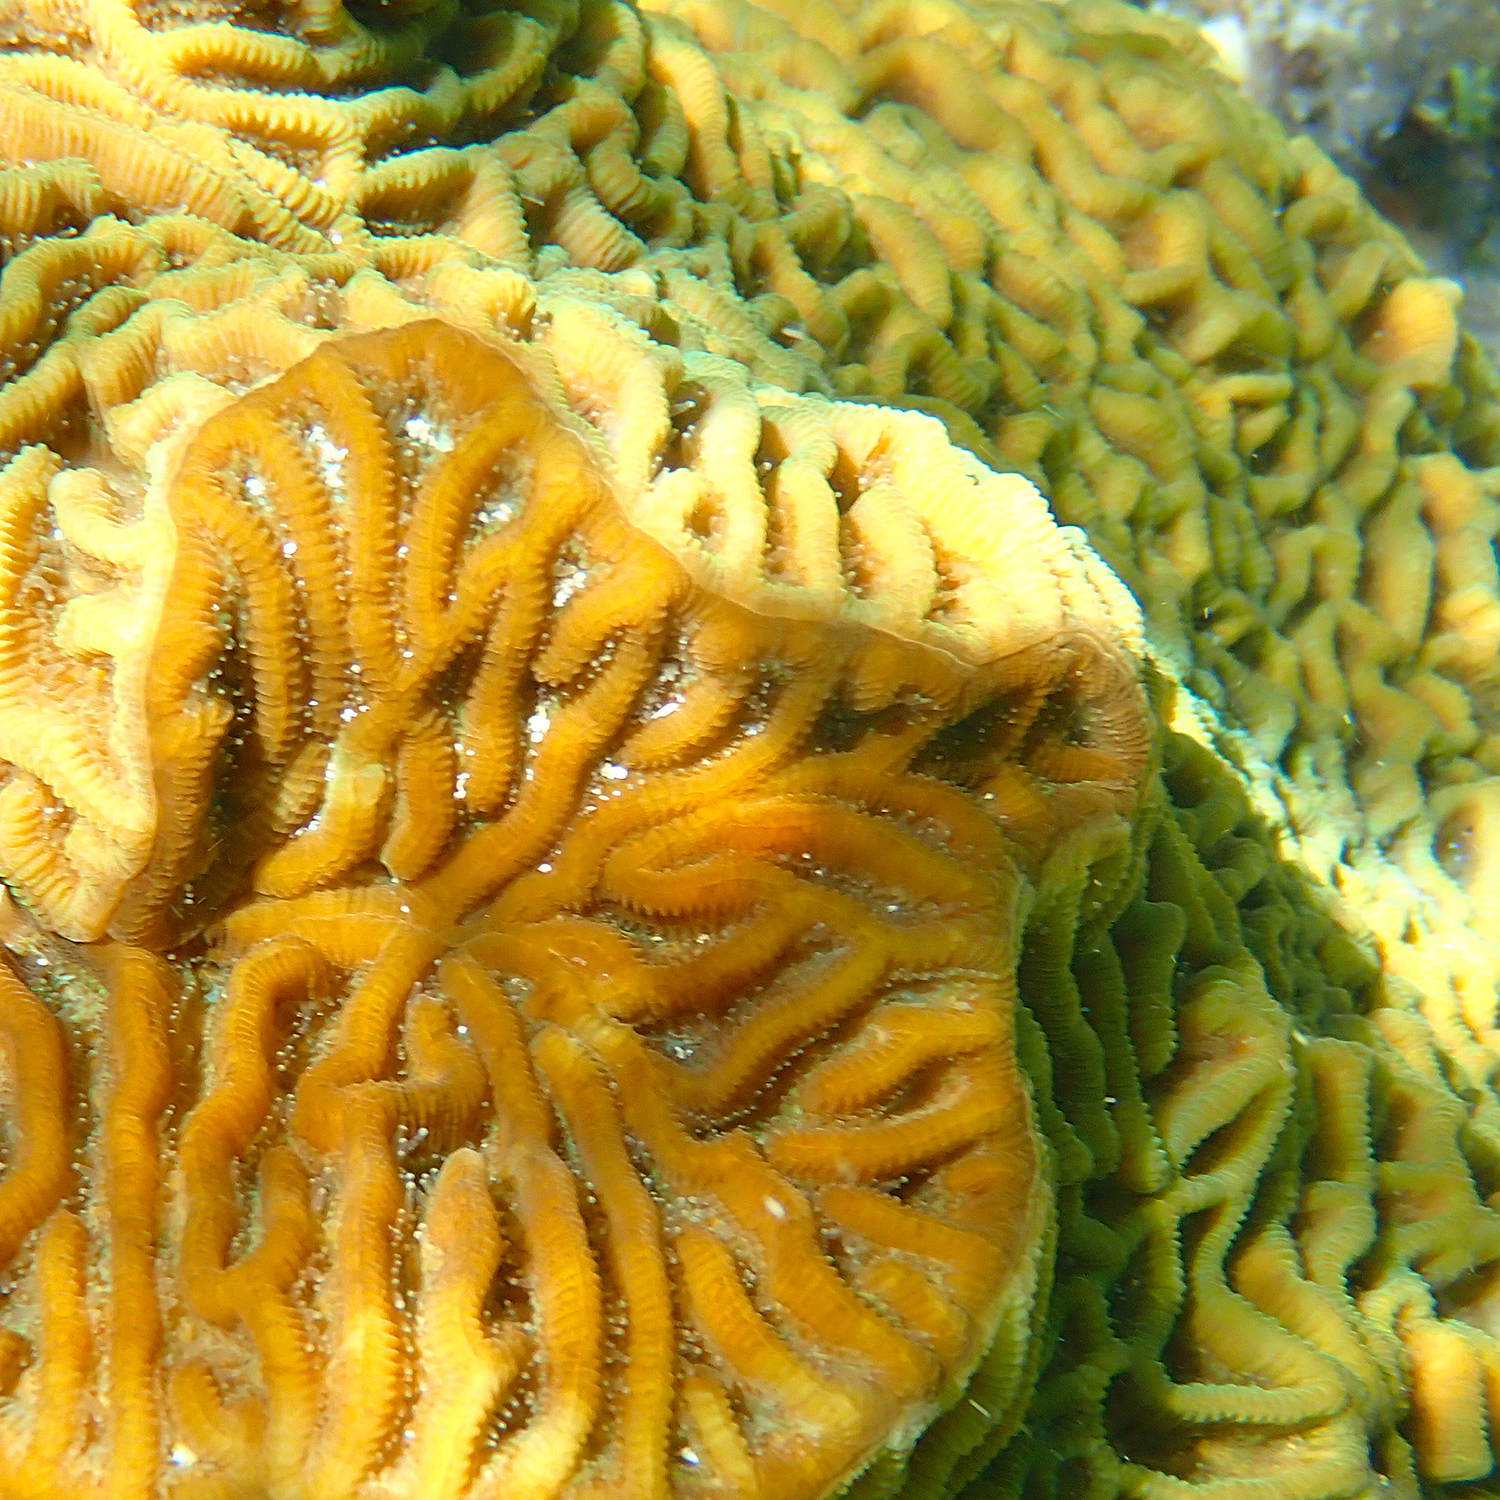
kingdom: Animalia
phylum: Cnidaria
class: Anthozoa
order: Scleractinia
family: Merulinidae
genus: Paragoniastrea
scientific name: Paragoniastrea australensis
